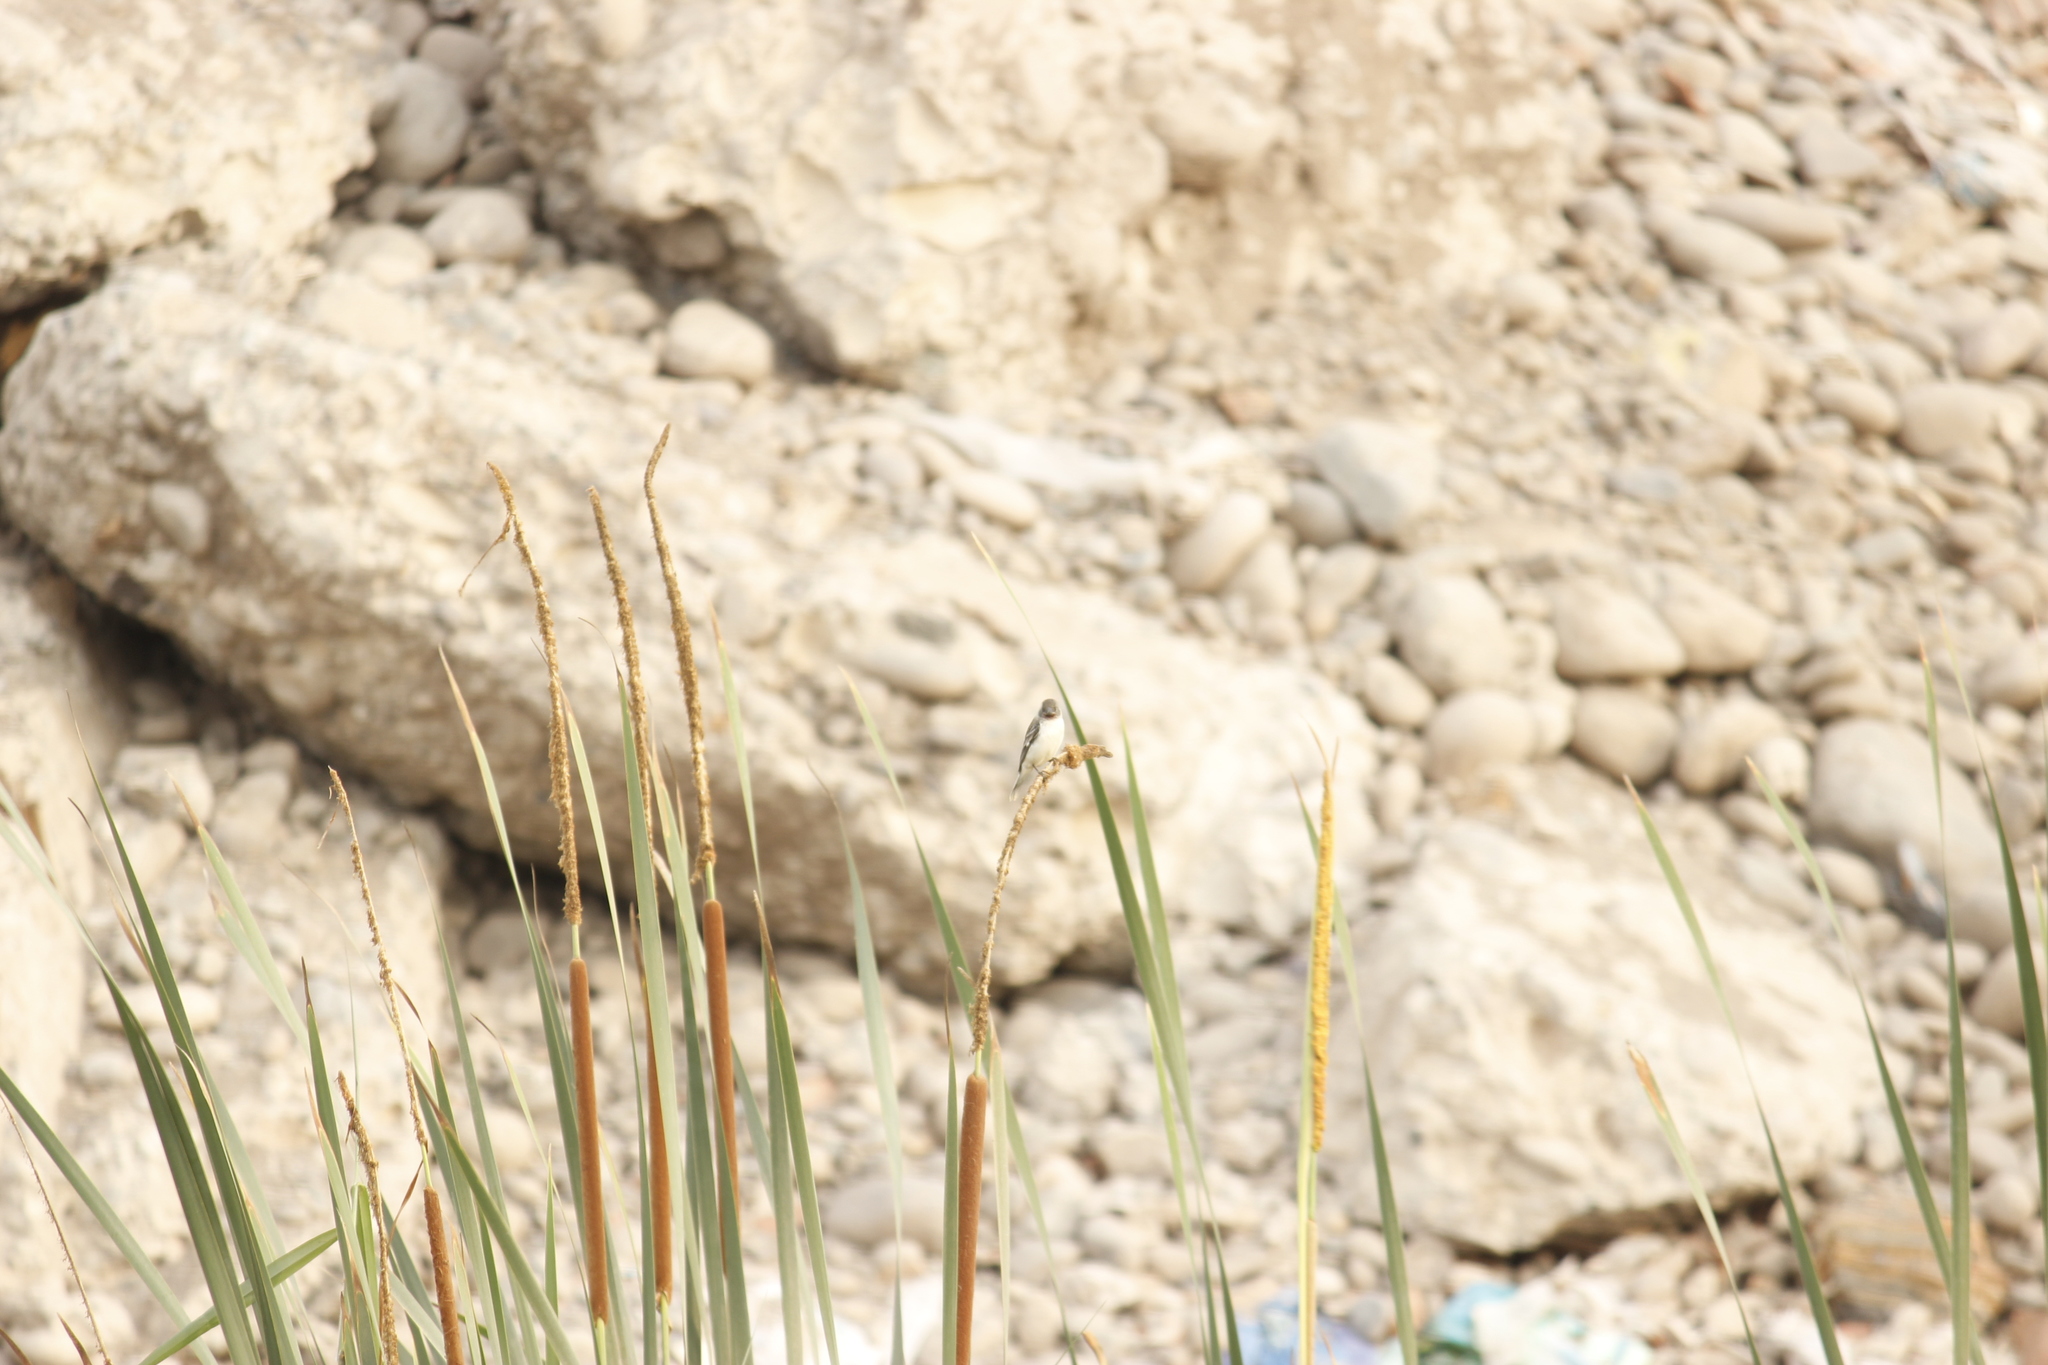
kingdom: Animalia
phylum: Chordata
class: Aves
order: Passeriformes
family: Thraupidae
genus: Sporophila
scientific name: Sporophila telasco
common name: Chestnut-throated seedeater
